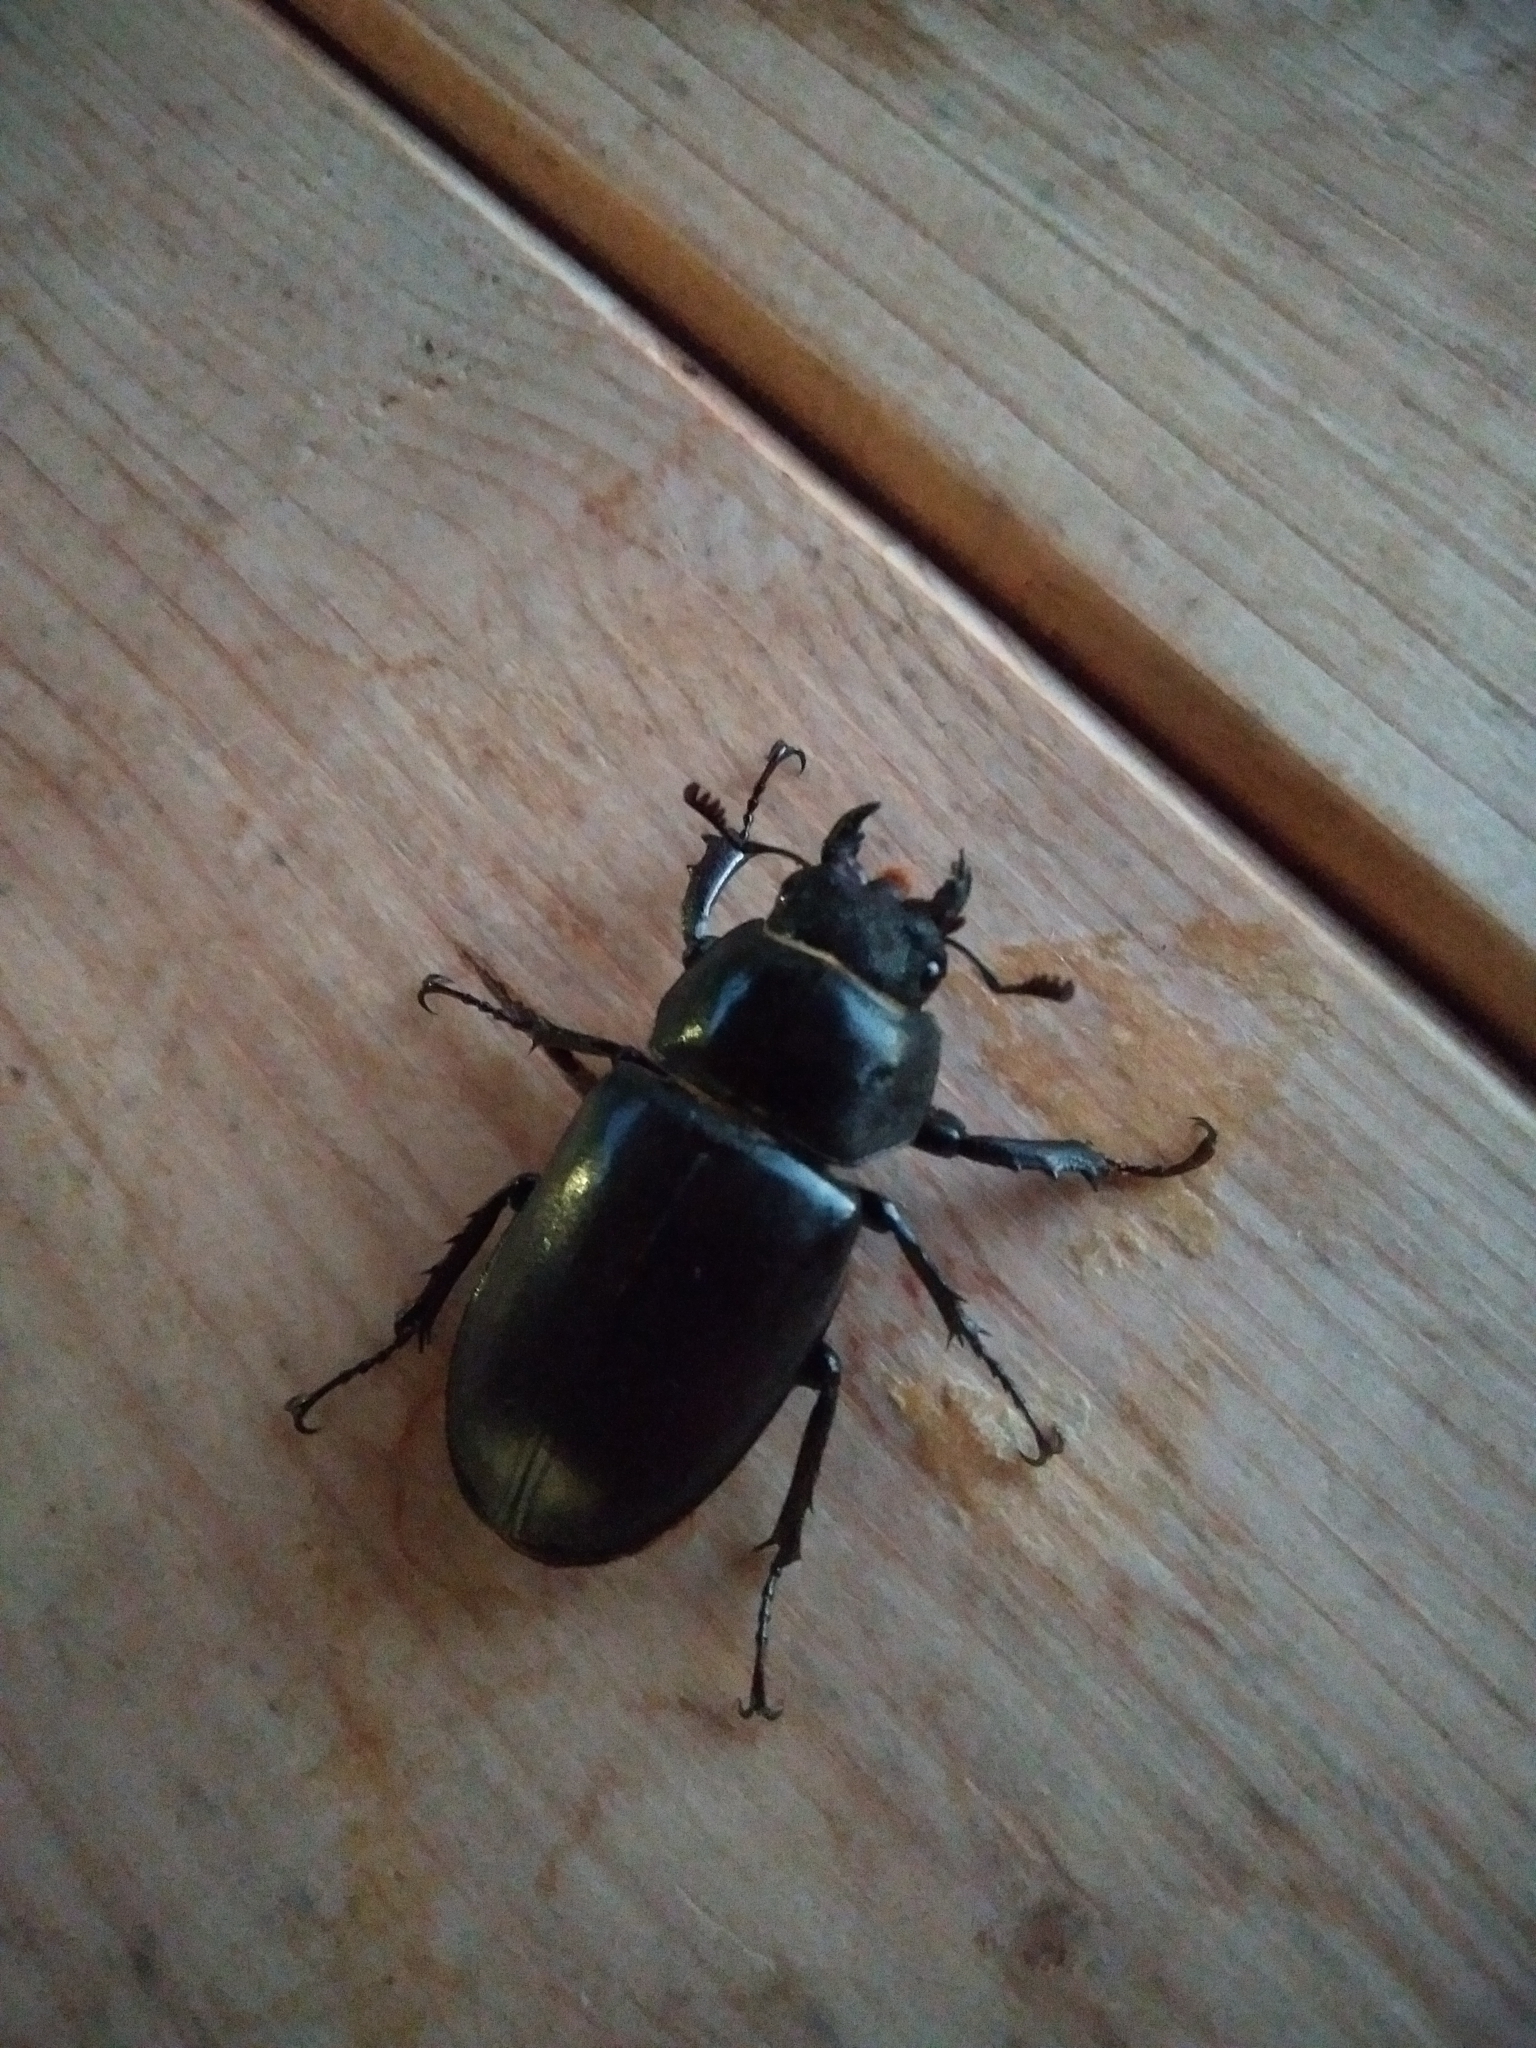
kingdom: Animalia
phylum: Arthropoda
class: Insecta
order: Coleoptera
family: Lucanidae
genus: Lucanus
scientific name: Lucanus cervus
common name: Stag beetle
